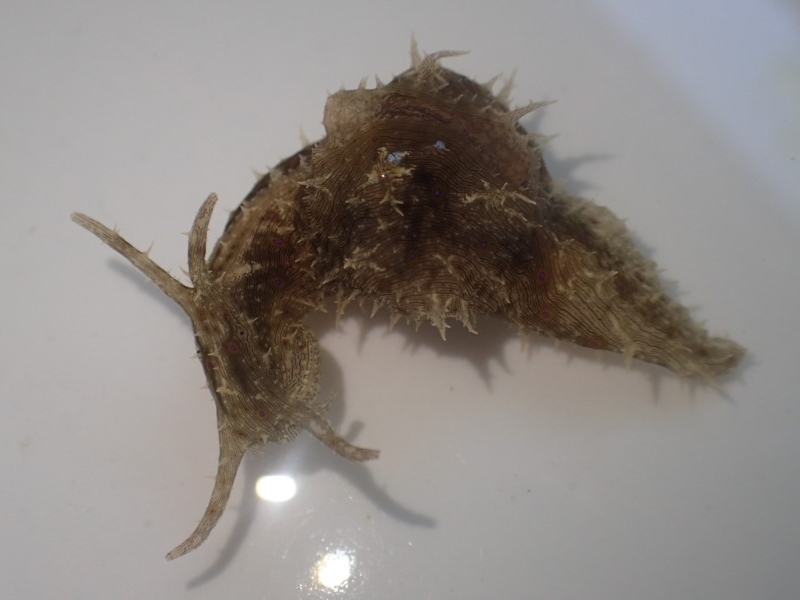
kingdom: Animalia
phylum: Mollusca
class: Gastropoda
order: Aplysiida
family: Aplysiidae
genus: Stylocheilus
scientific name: Stylocheilus striatus
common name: Striated seahare
